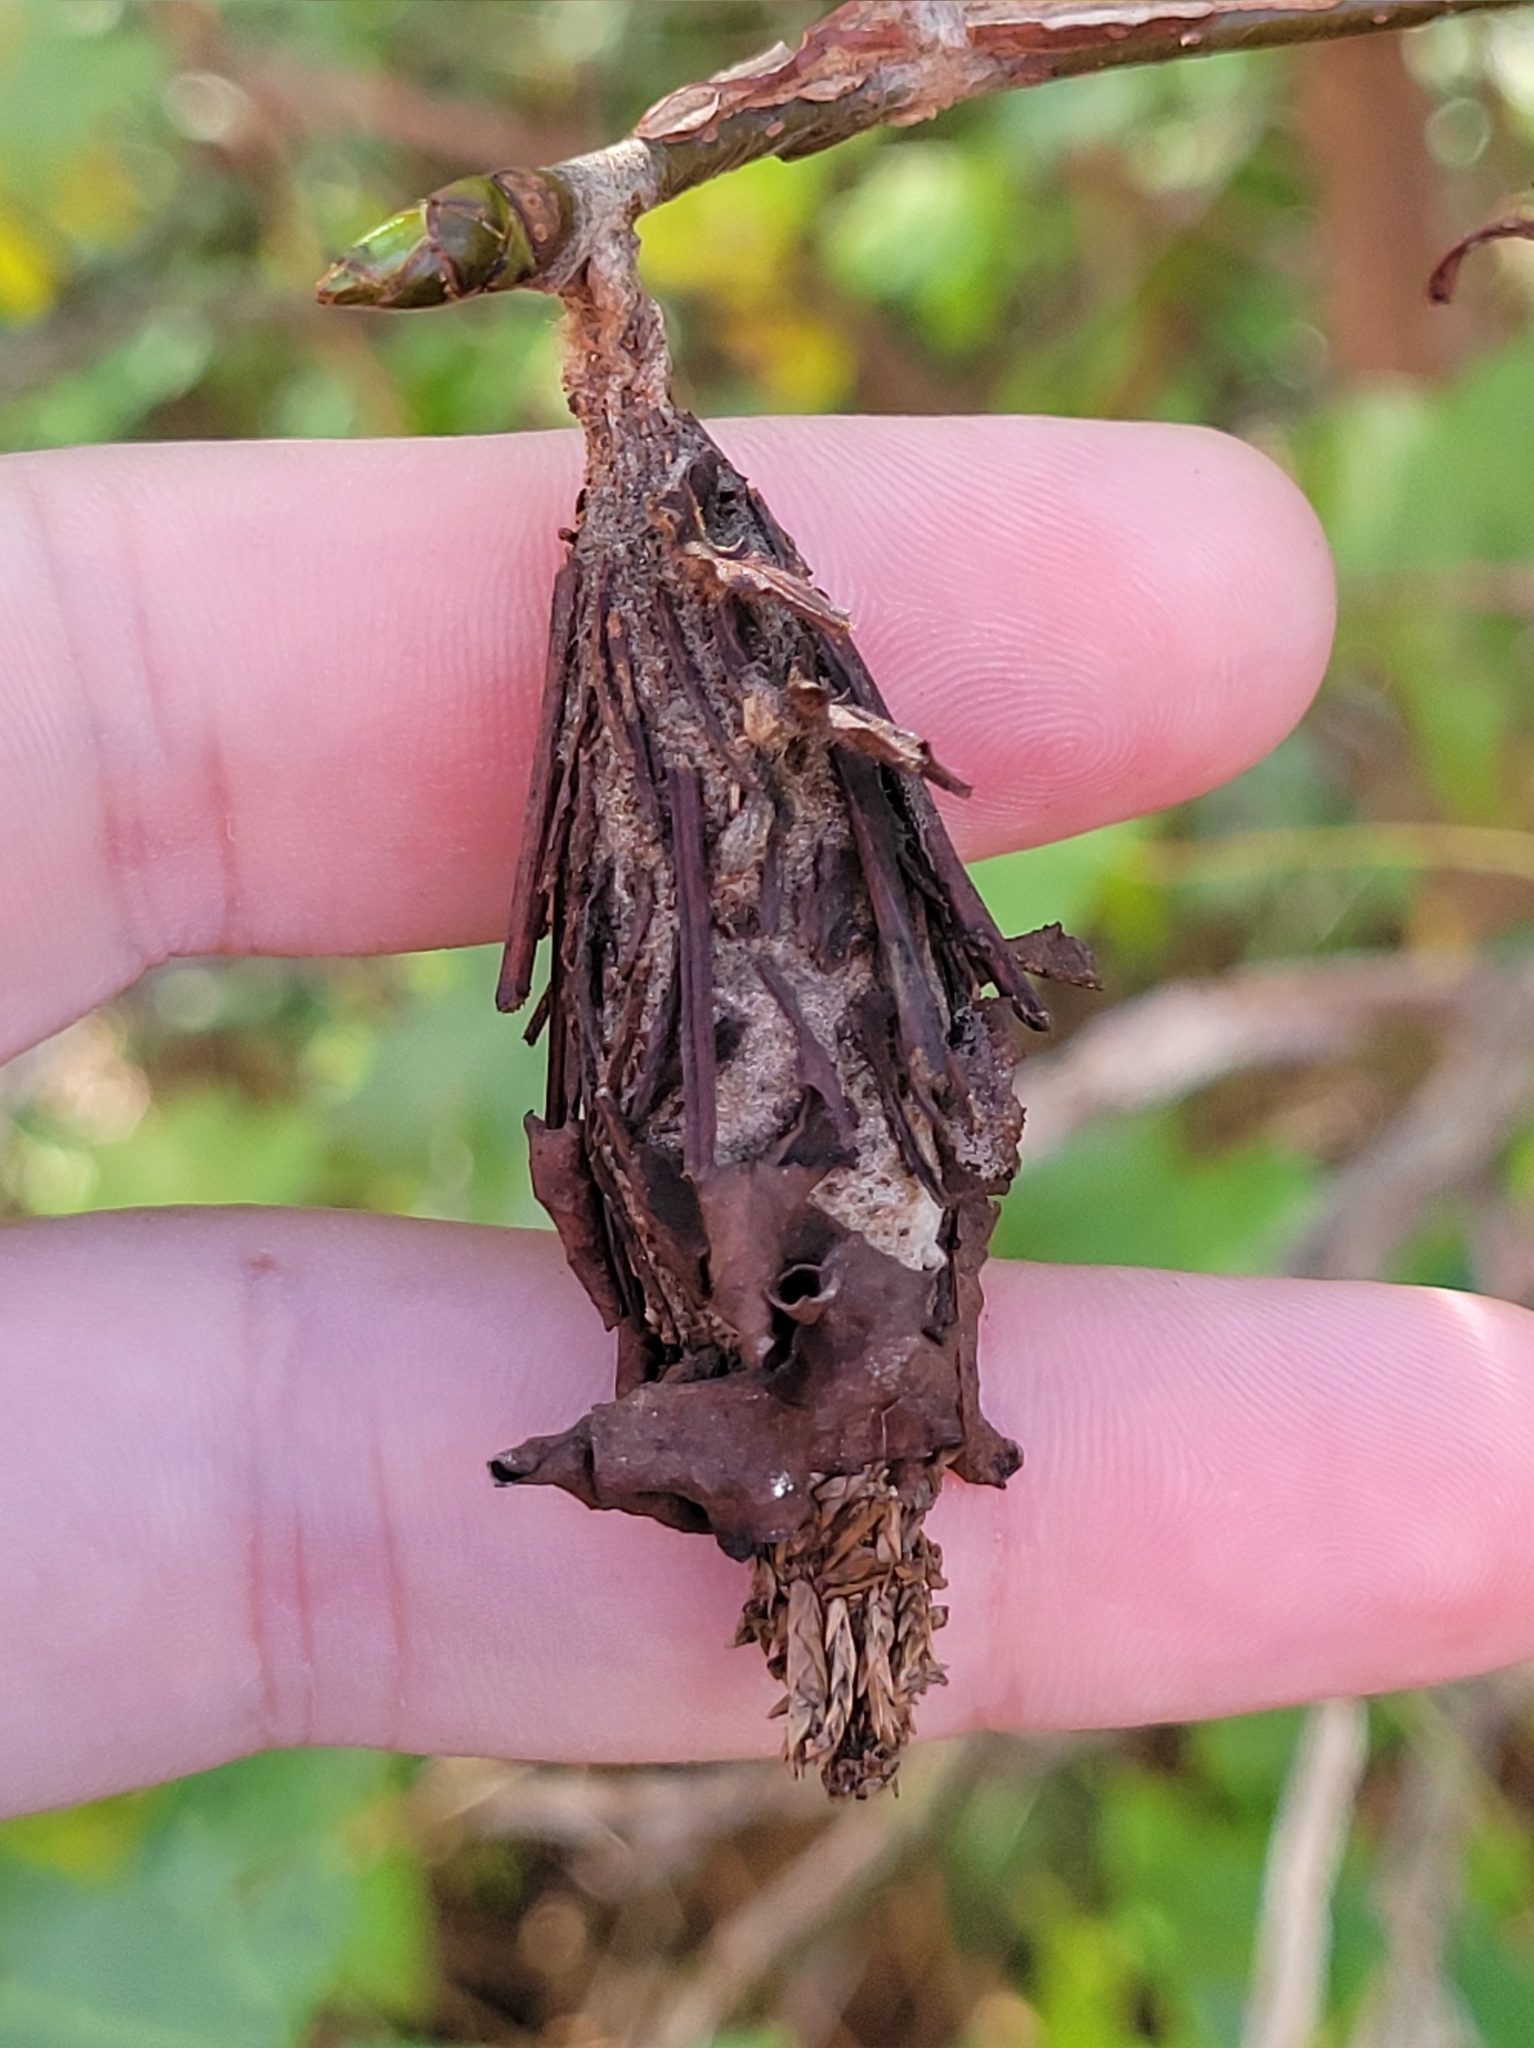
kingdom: Animalia
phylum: Arthropoda
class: Insecta
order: Lepidoptera
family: Psychidae
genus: Thyridopteryx
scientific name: Thyridopteryx ephemeraeformis
